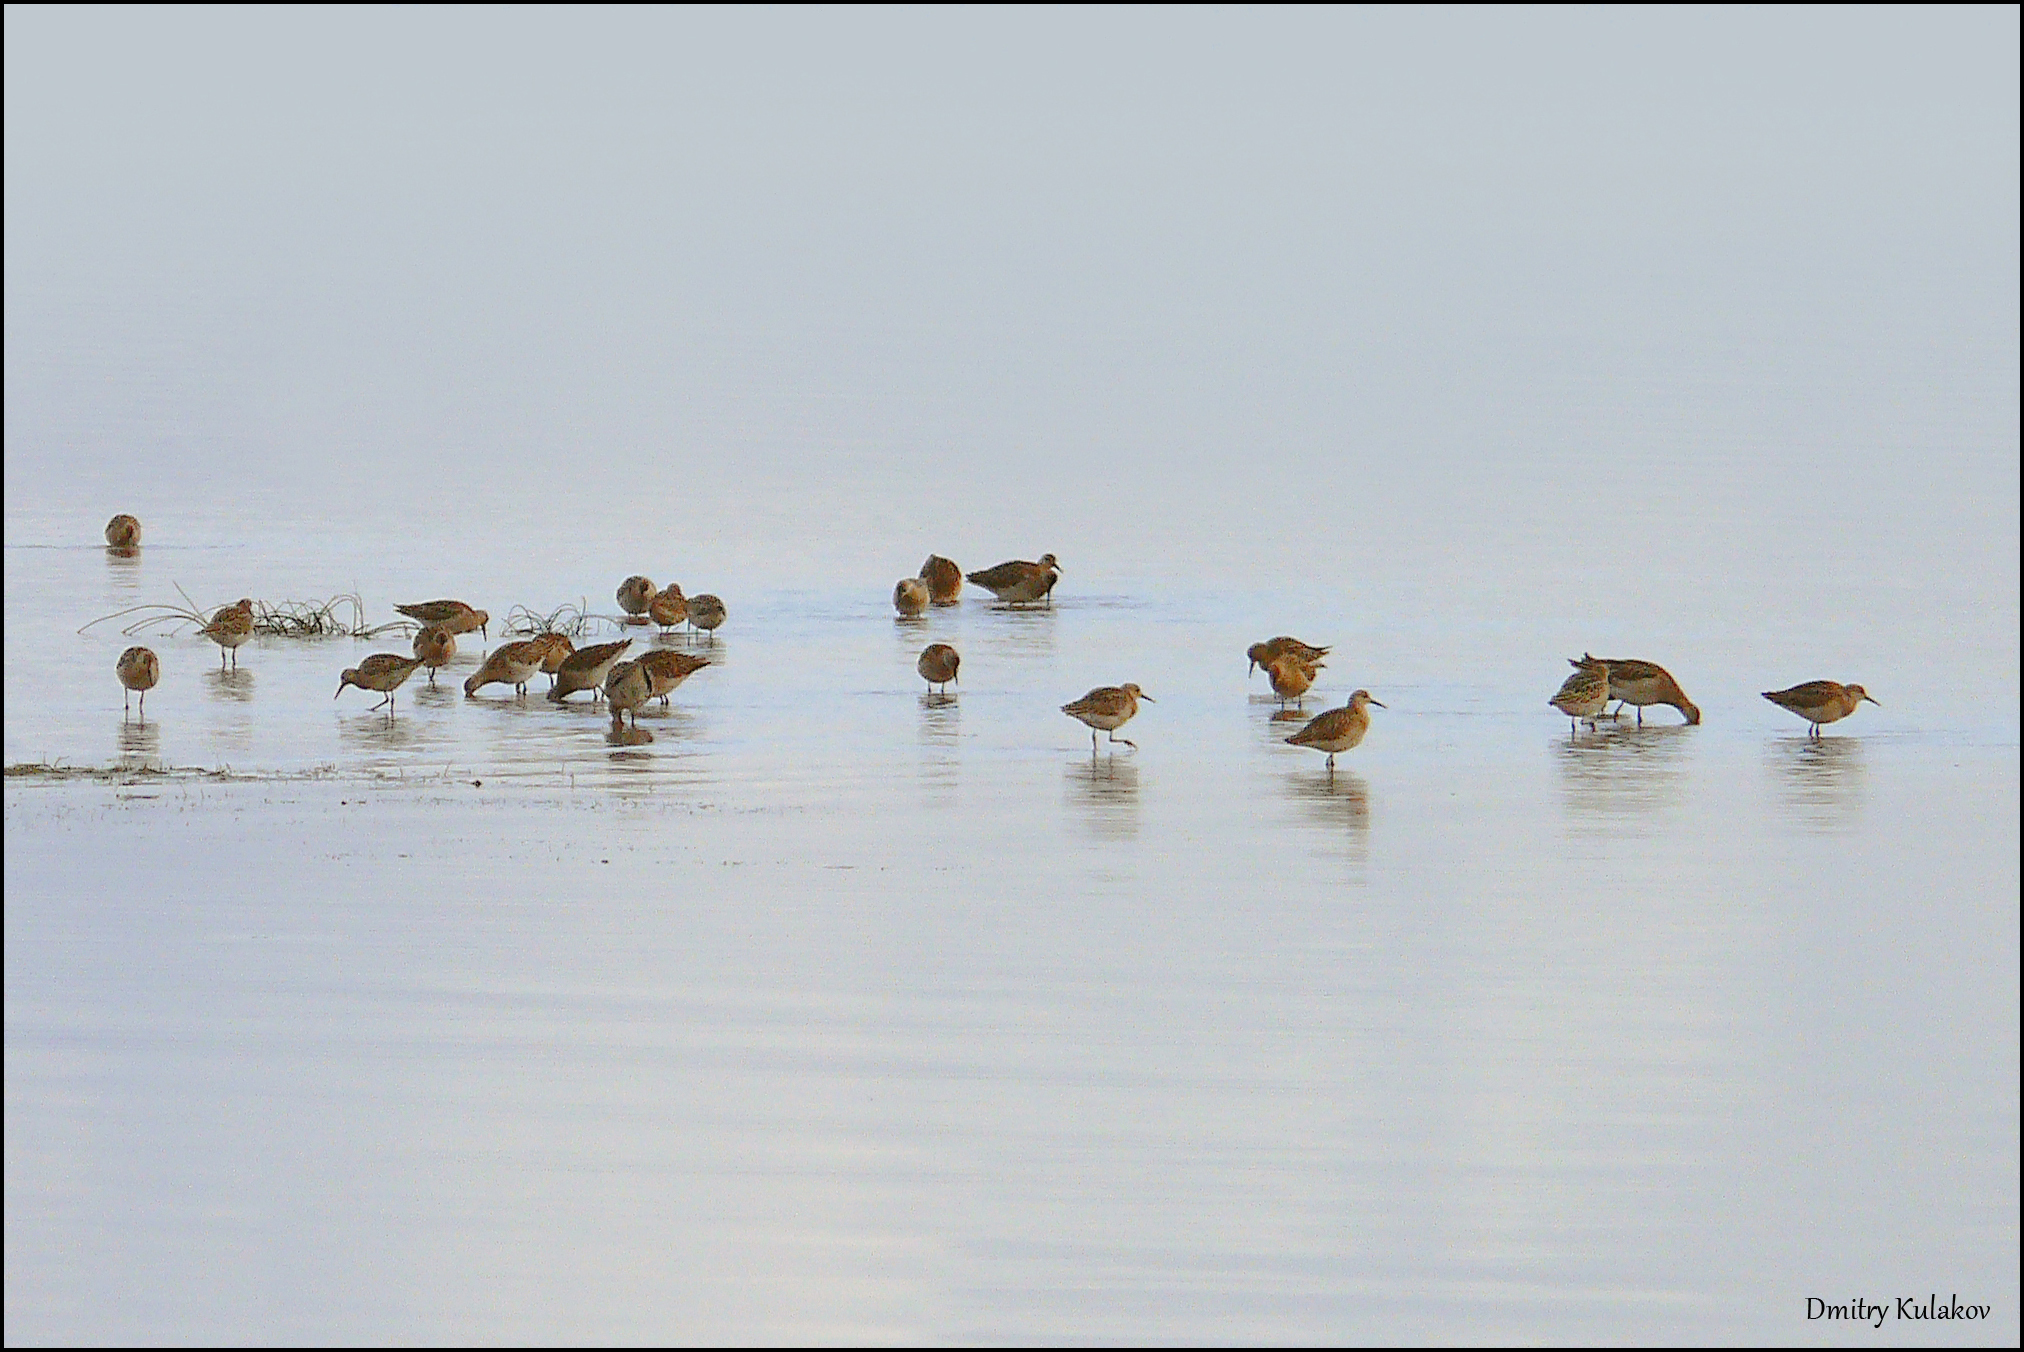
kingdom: Animalia
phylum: Chordata
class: Aves
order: Charadriiformes
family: Scolopacidae
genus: Calidris
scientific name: Calidris pugnax
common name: Ruff
